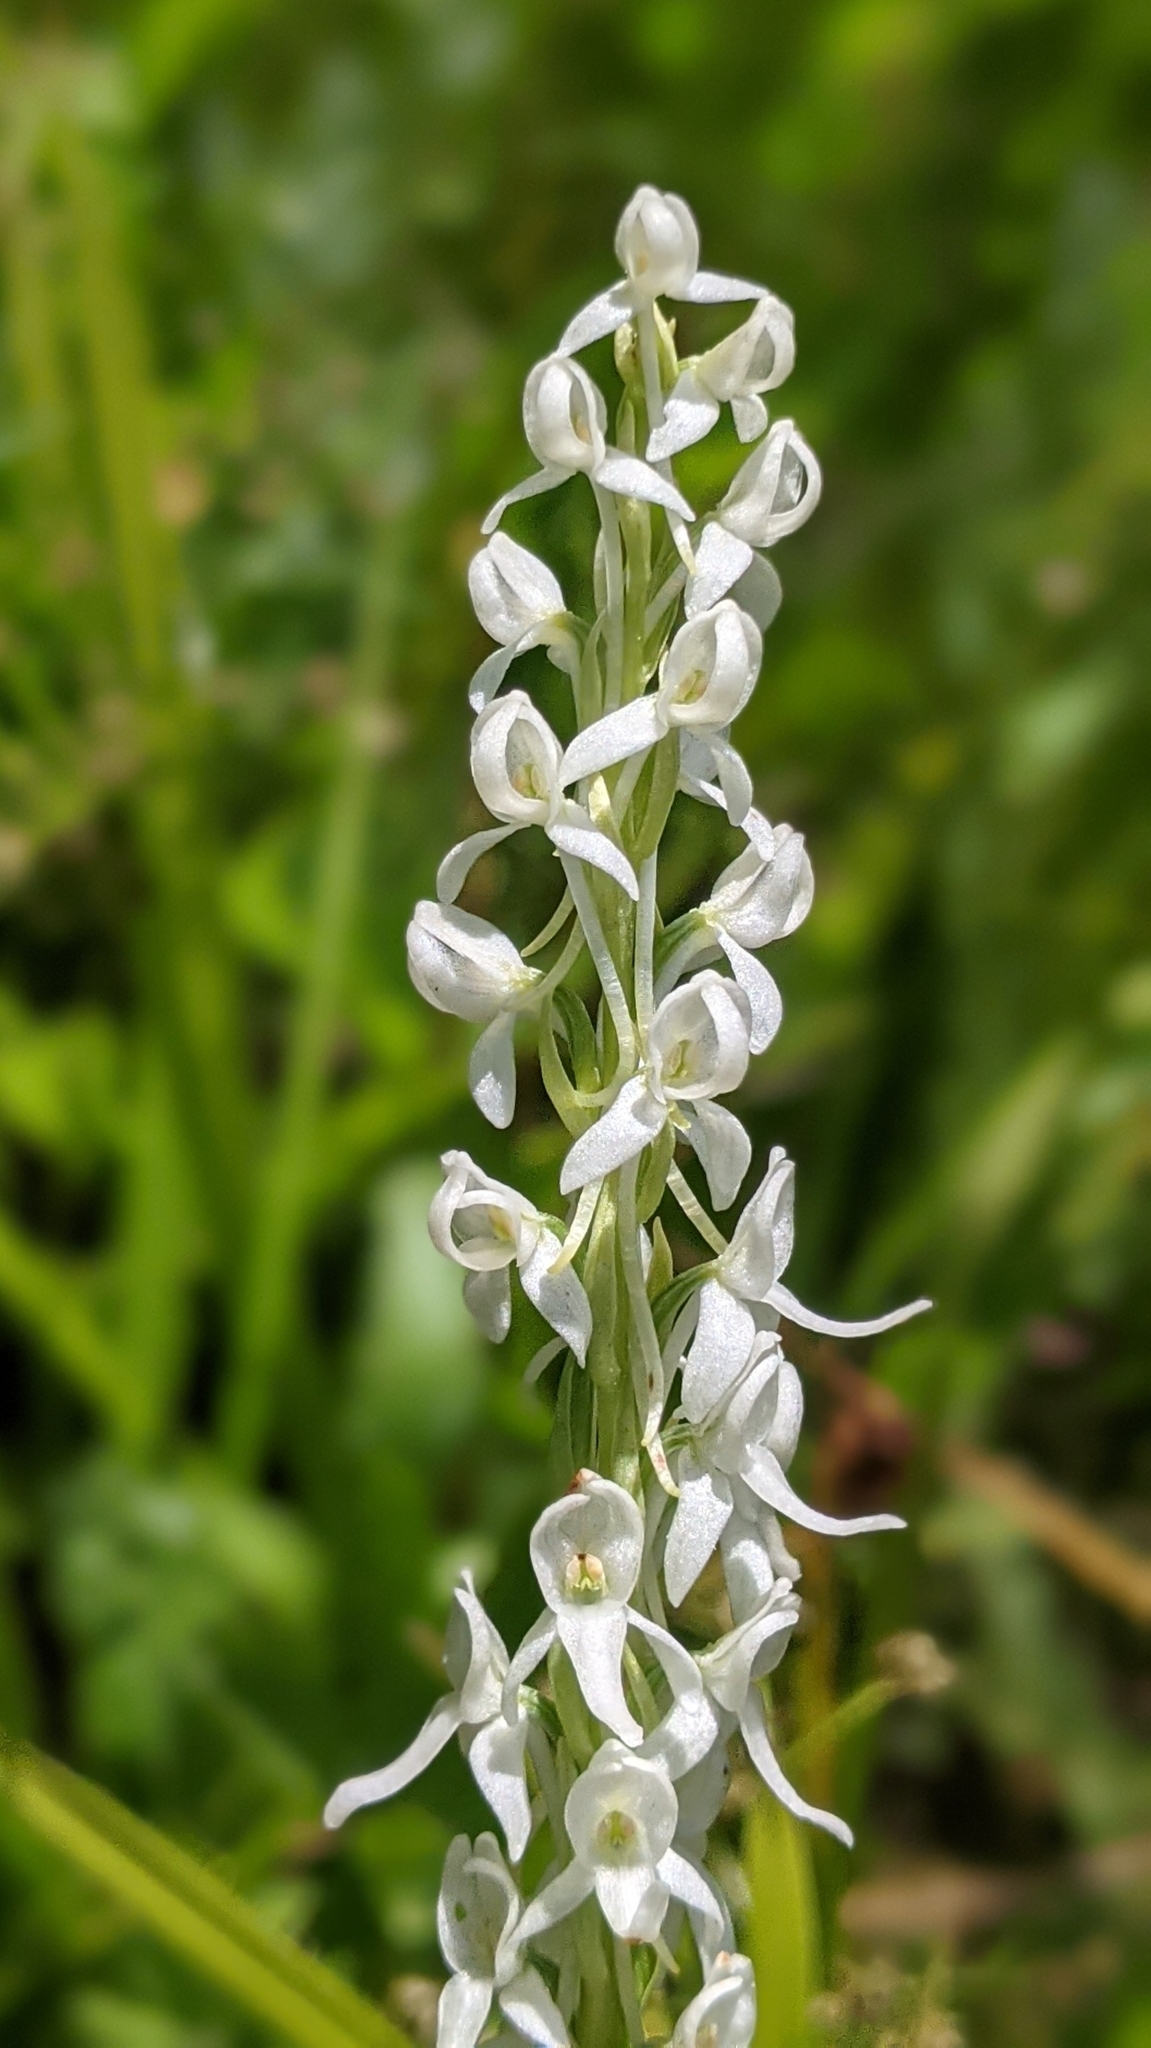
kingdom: Plantae
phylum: Tracheophyta
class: Liliopsida
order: Asparagales
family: Orchidaceae
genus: Platanthera
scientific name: Platanthera dilatata
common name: Bog candles
